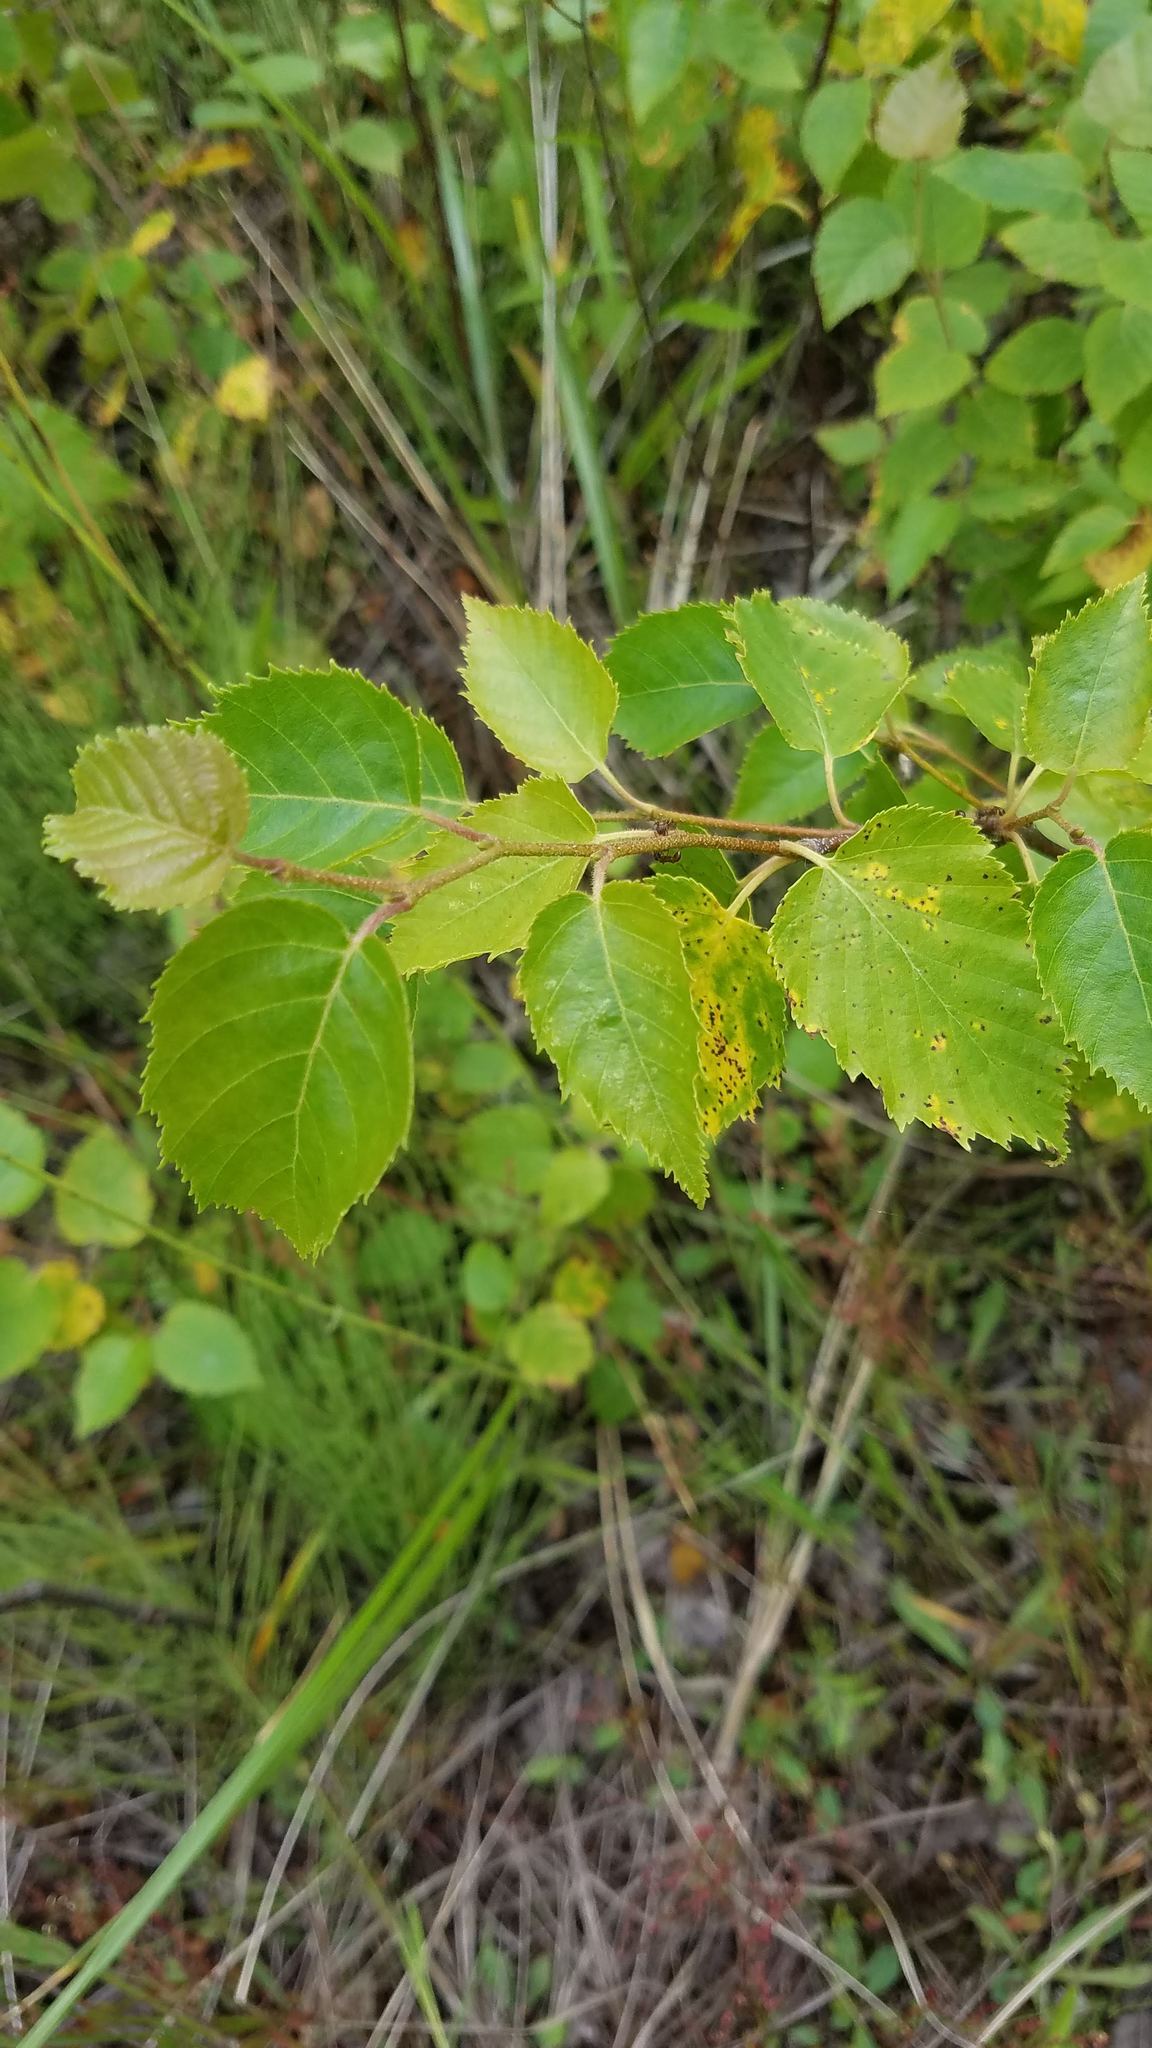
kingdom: Plantae
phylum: Tracheophyta
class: Magnoliopsida
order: Fagales
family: Betulaceae
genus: Betula
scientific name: Betula papyrifera
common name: Paper birch
